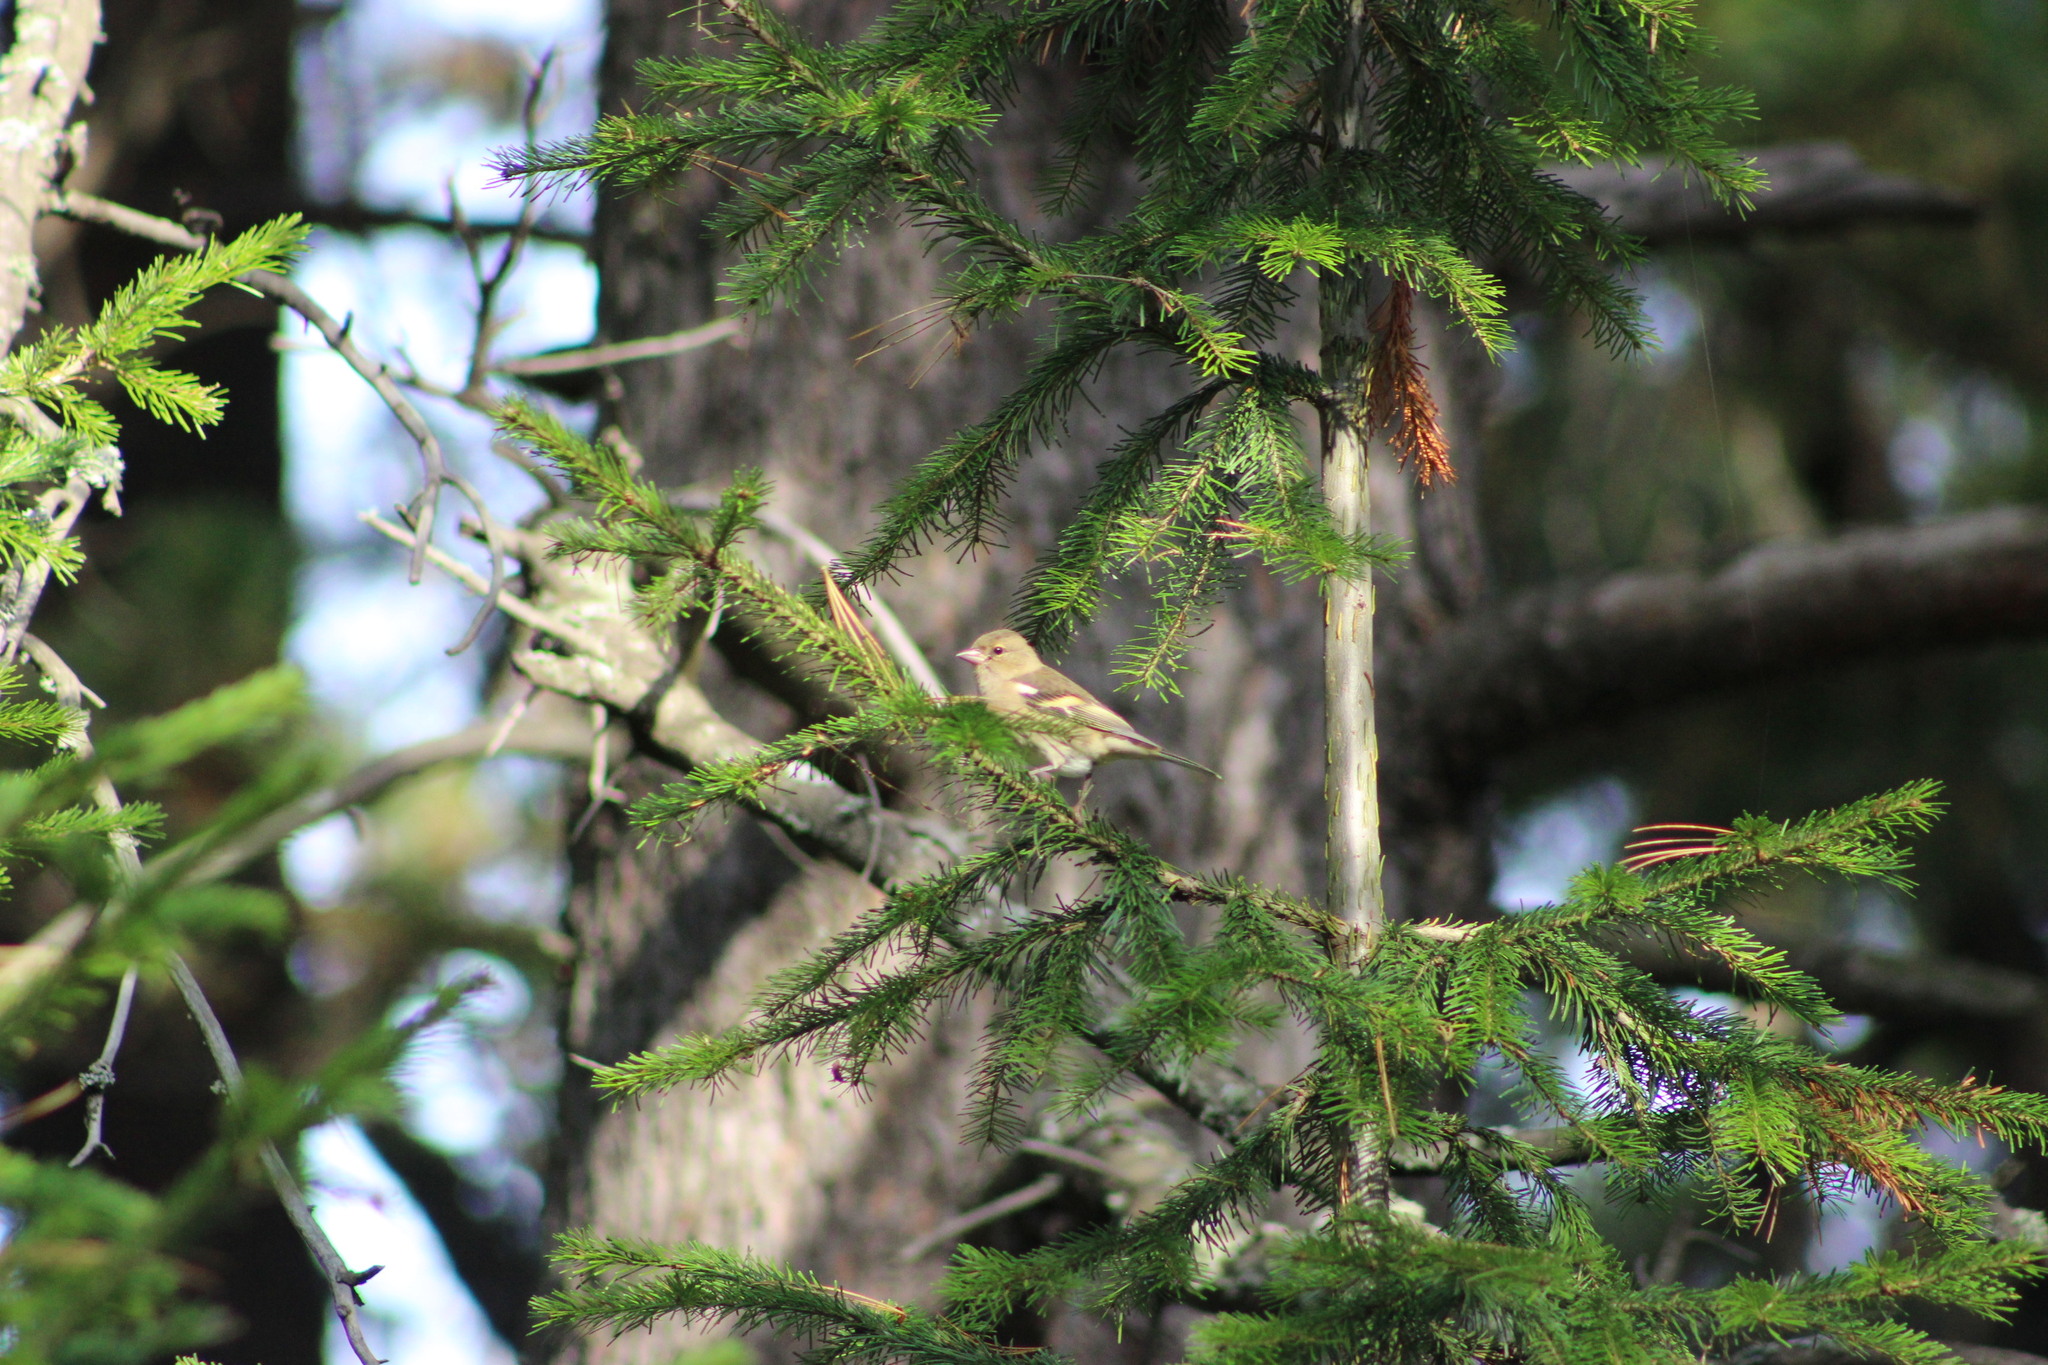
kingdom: Animalia
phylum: Chordata
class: Aves
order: Passeriformes
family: Fringillidae
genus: Fringilla
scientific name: Fringilla coelebs
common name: Common chaffinch
